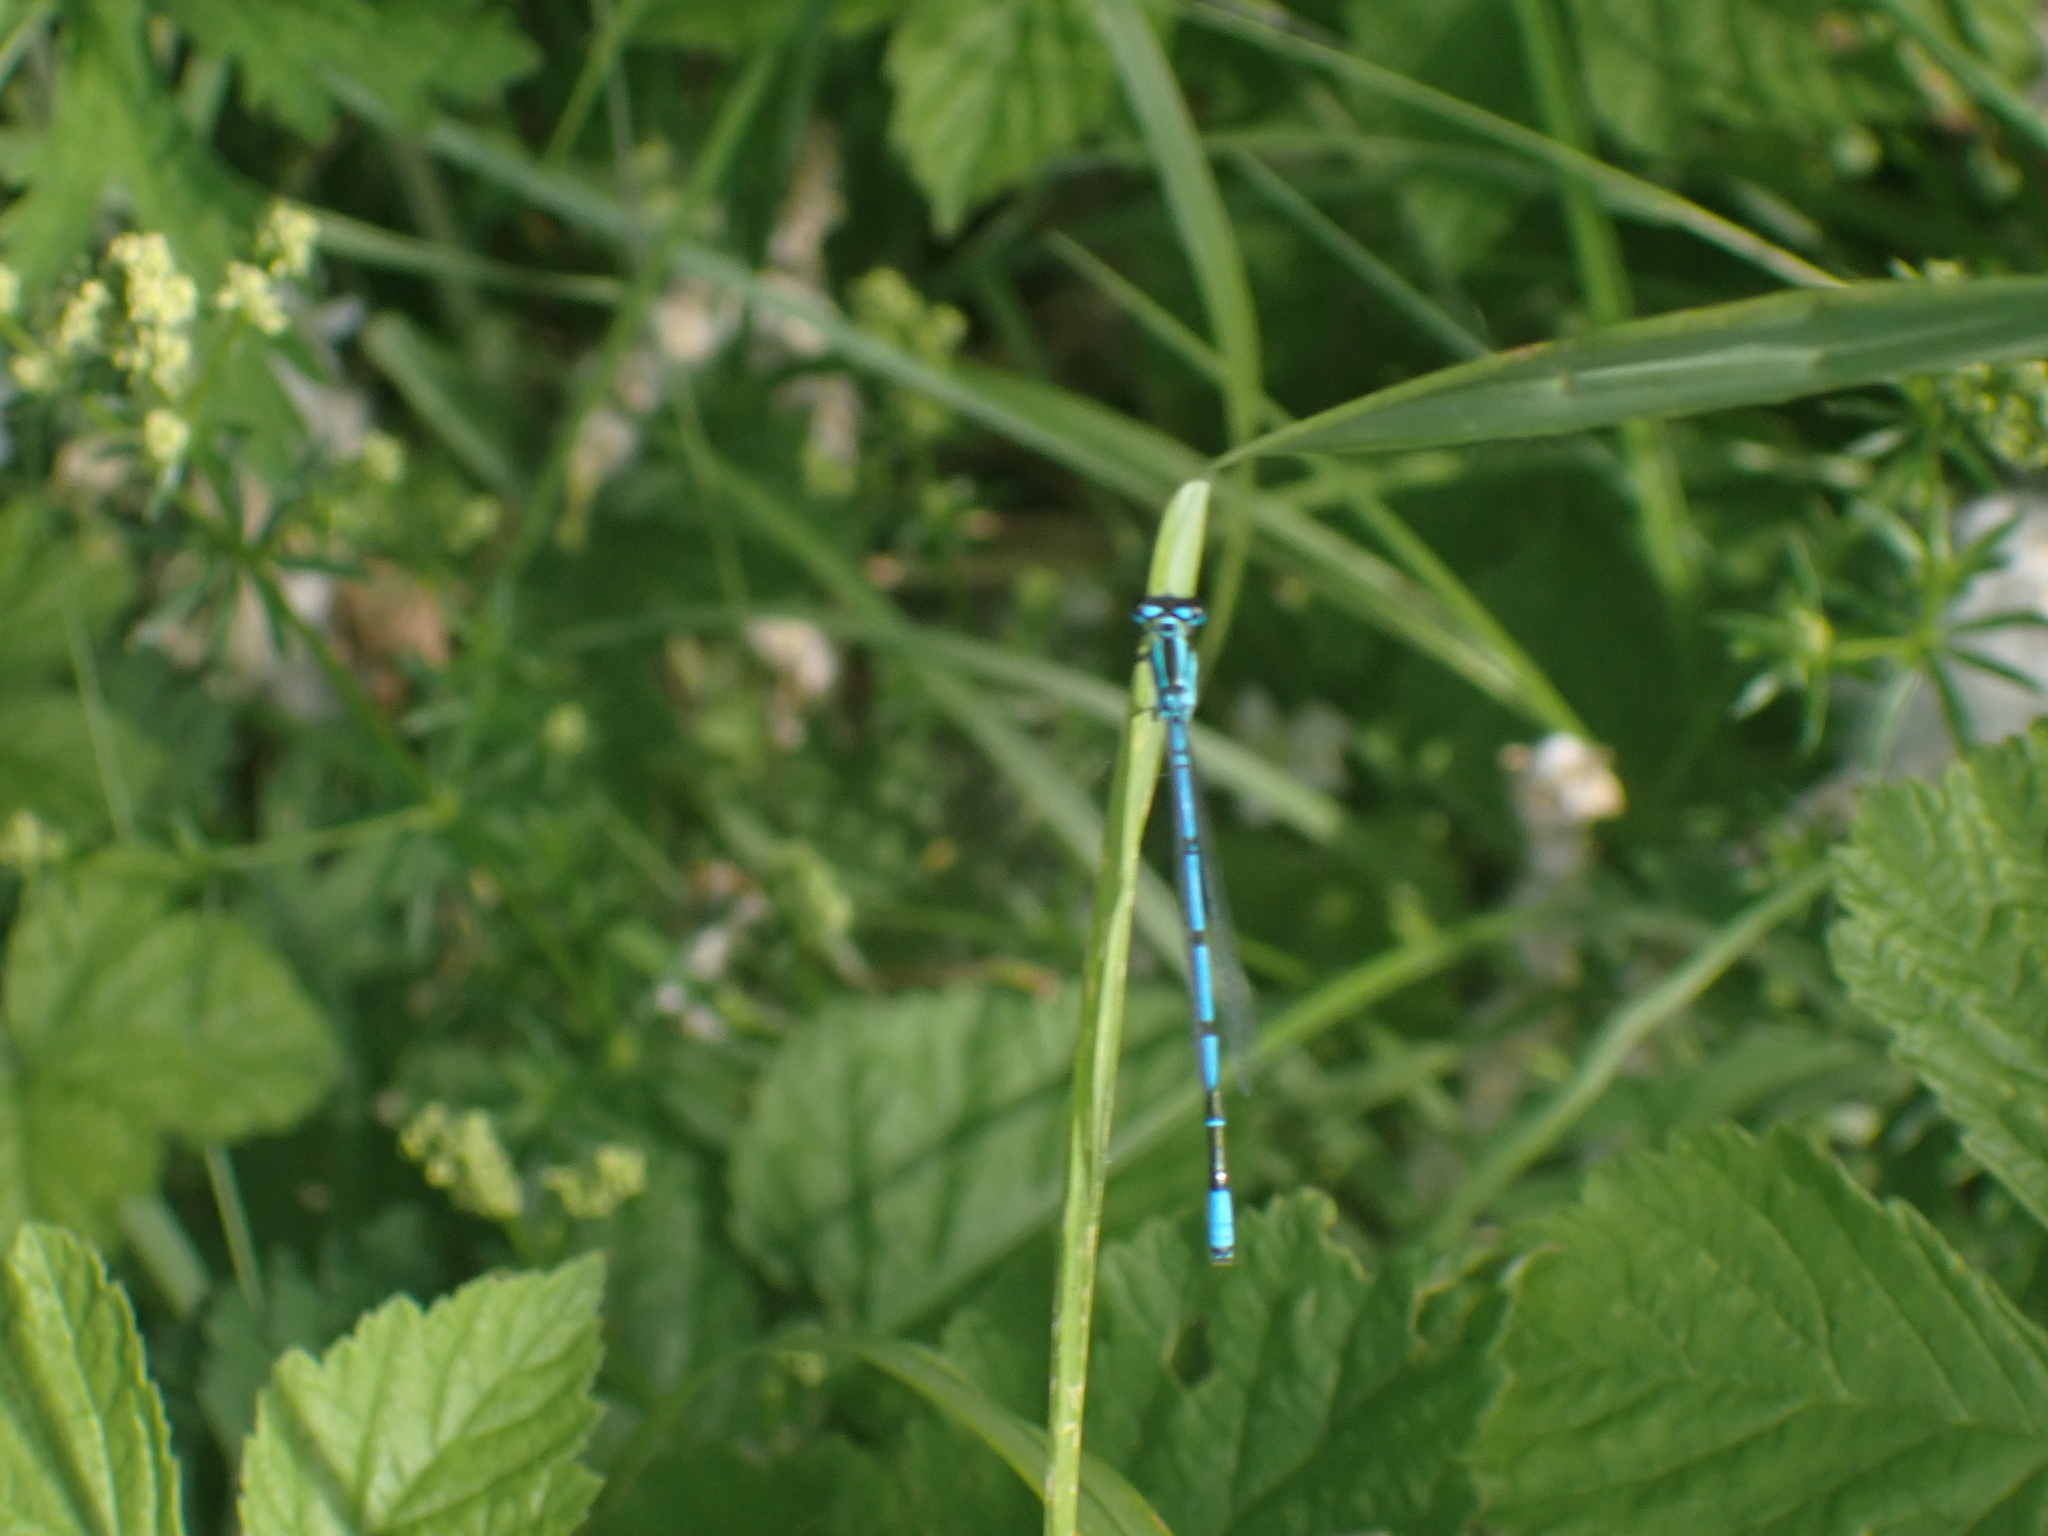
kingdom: Animalia
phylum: Arthropoda
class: Insecta
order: Odonata
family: Coenagrionidae
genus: Coenagrion
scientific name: Coenagrion puella
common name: Azure damselfly
